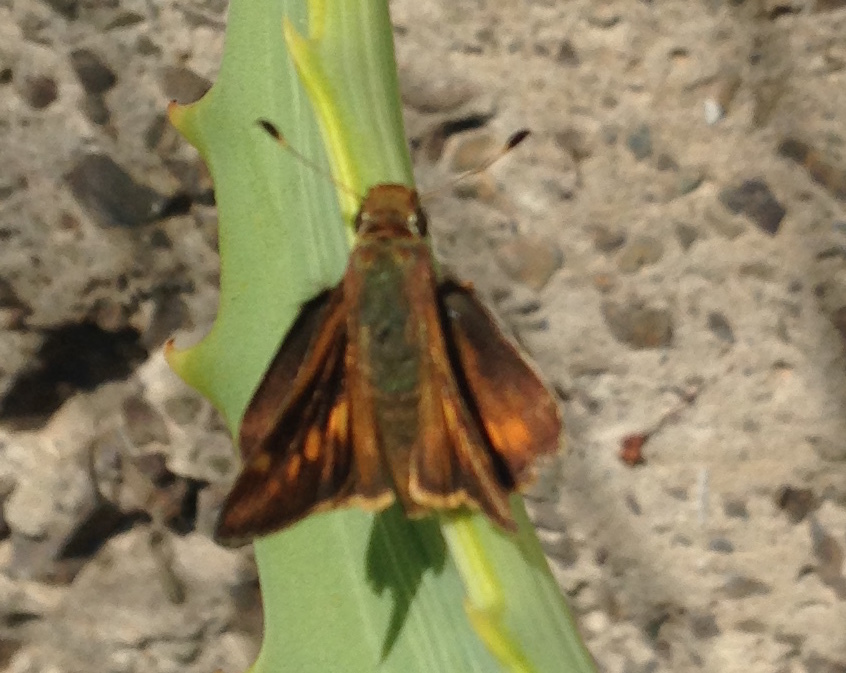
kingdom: Animalia
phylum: Arthropoda
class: Insecta
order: Lepidoptera
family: Hesperiidae
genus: Lon
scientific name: Lon melane
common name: Umber skipper
